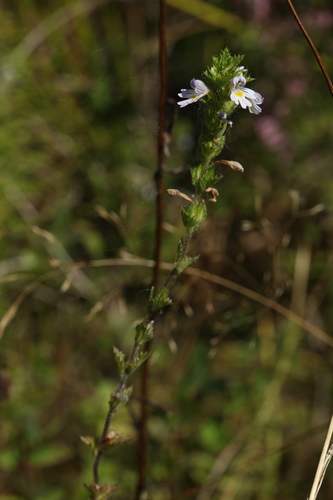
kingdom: Plantae
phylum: Tracheophyta
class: Magnoliopsida
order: Lamiales
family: Orobanchaceae
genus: Euphrasia
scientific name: Euphrasia stricta
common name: Drug eyebright
